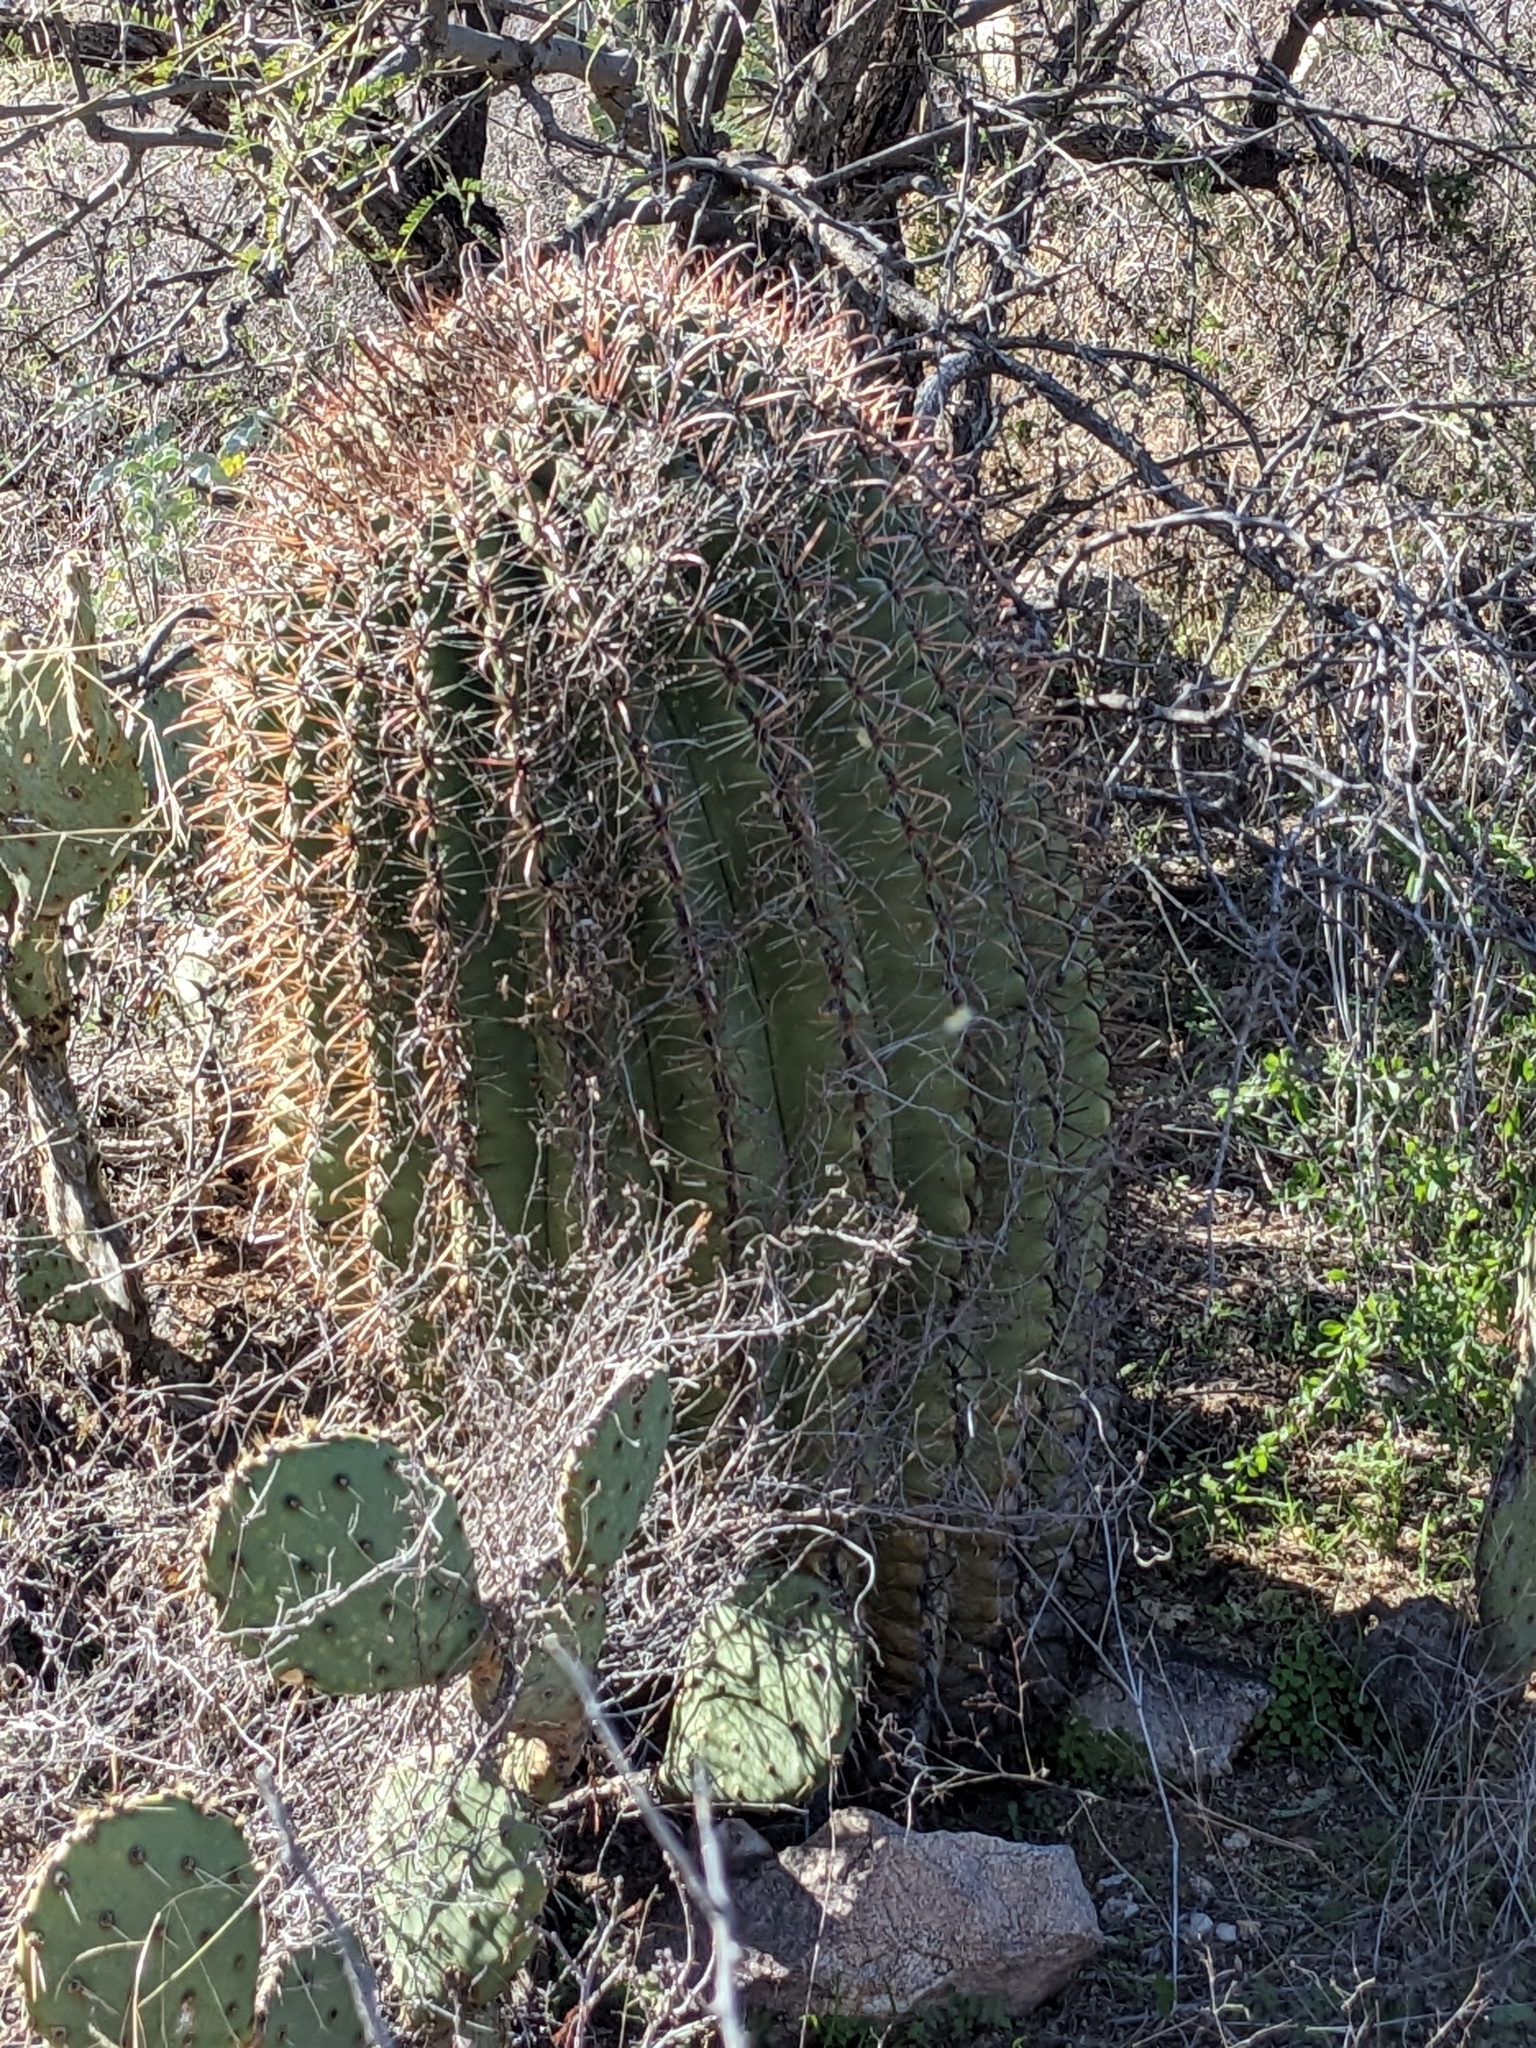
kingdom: Plantae
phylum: Tracheophyta
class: Magnoliopsida
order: Caryophyllales
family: Cactaceae
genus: Ferocactus
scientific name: Ferocactus wislizeni
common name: Candy barrel cactus
